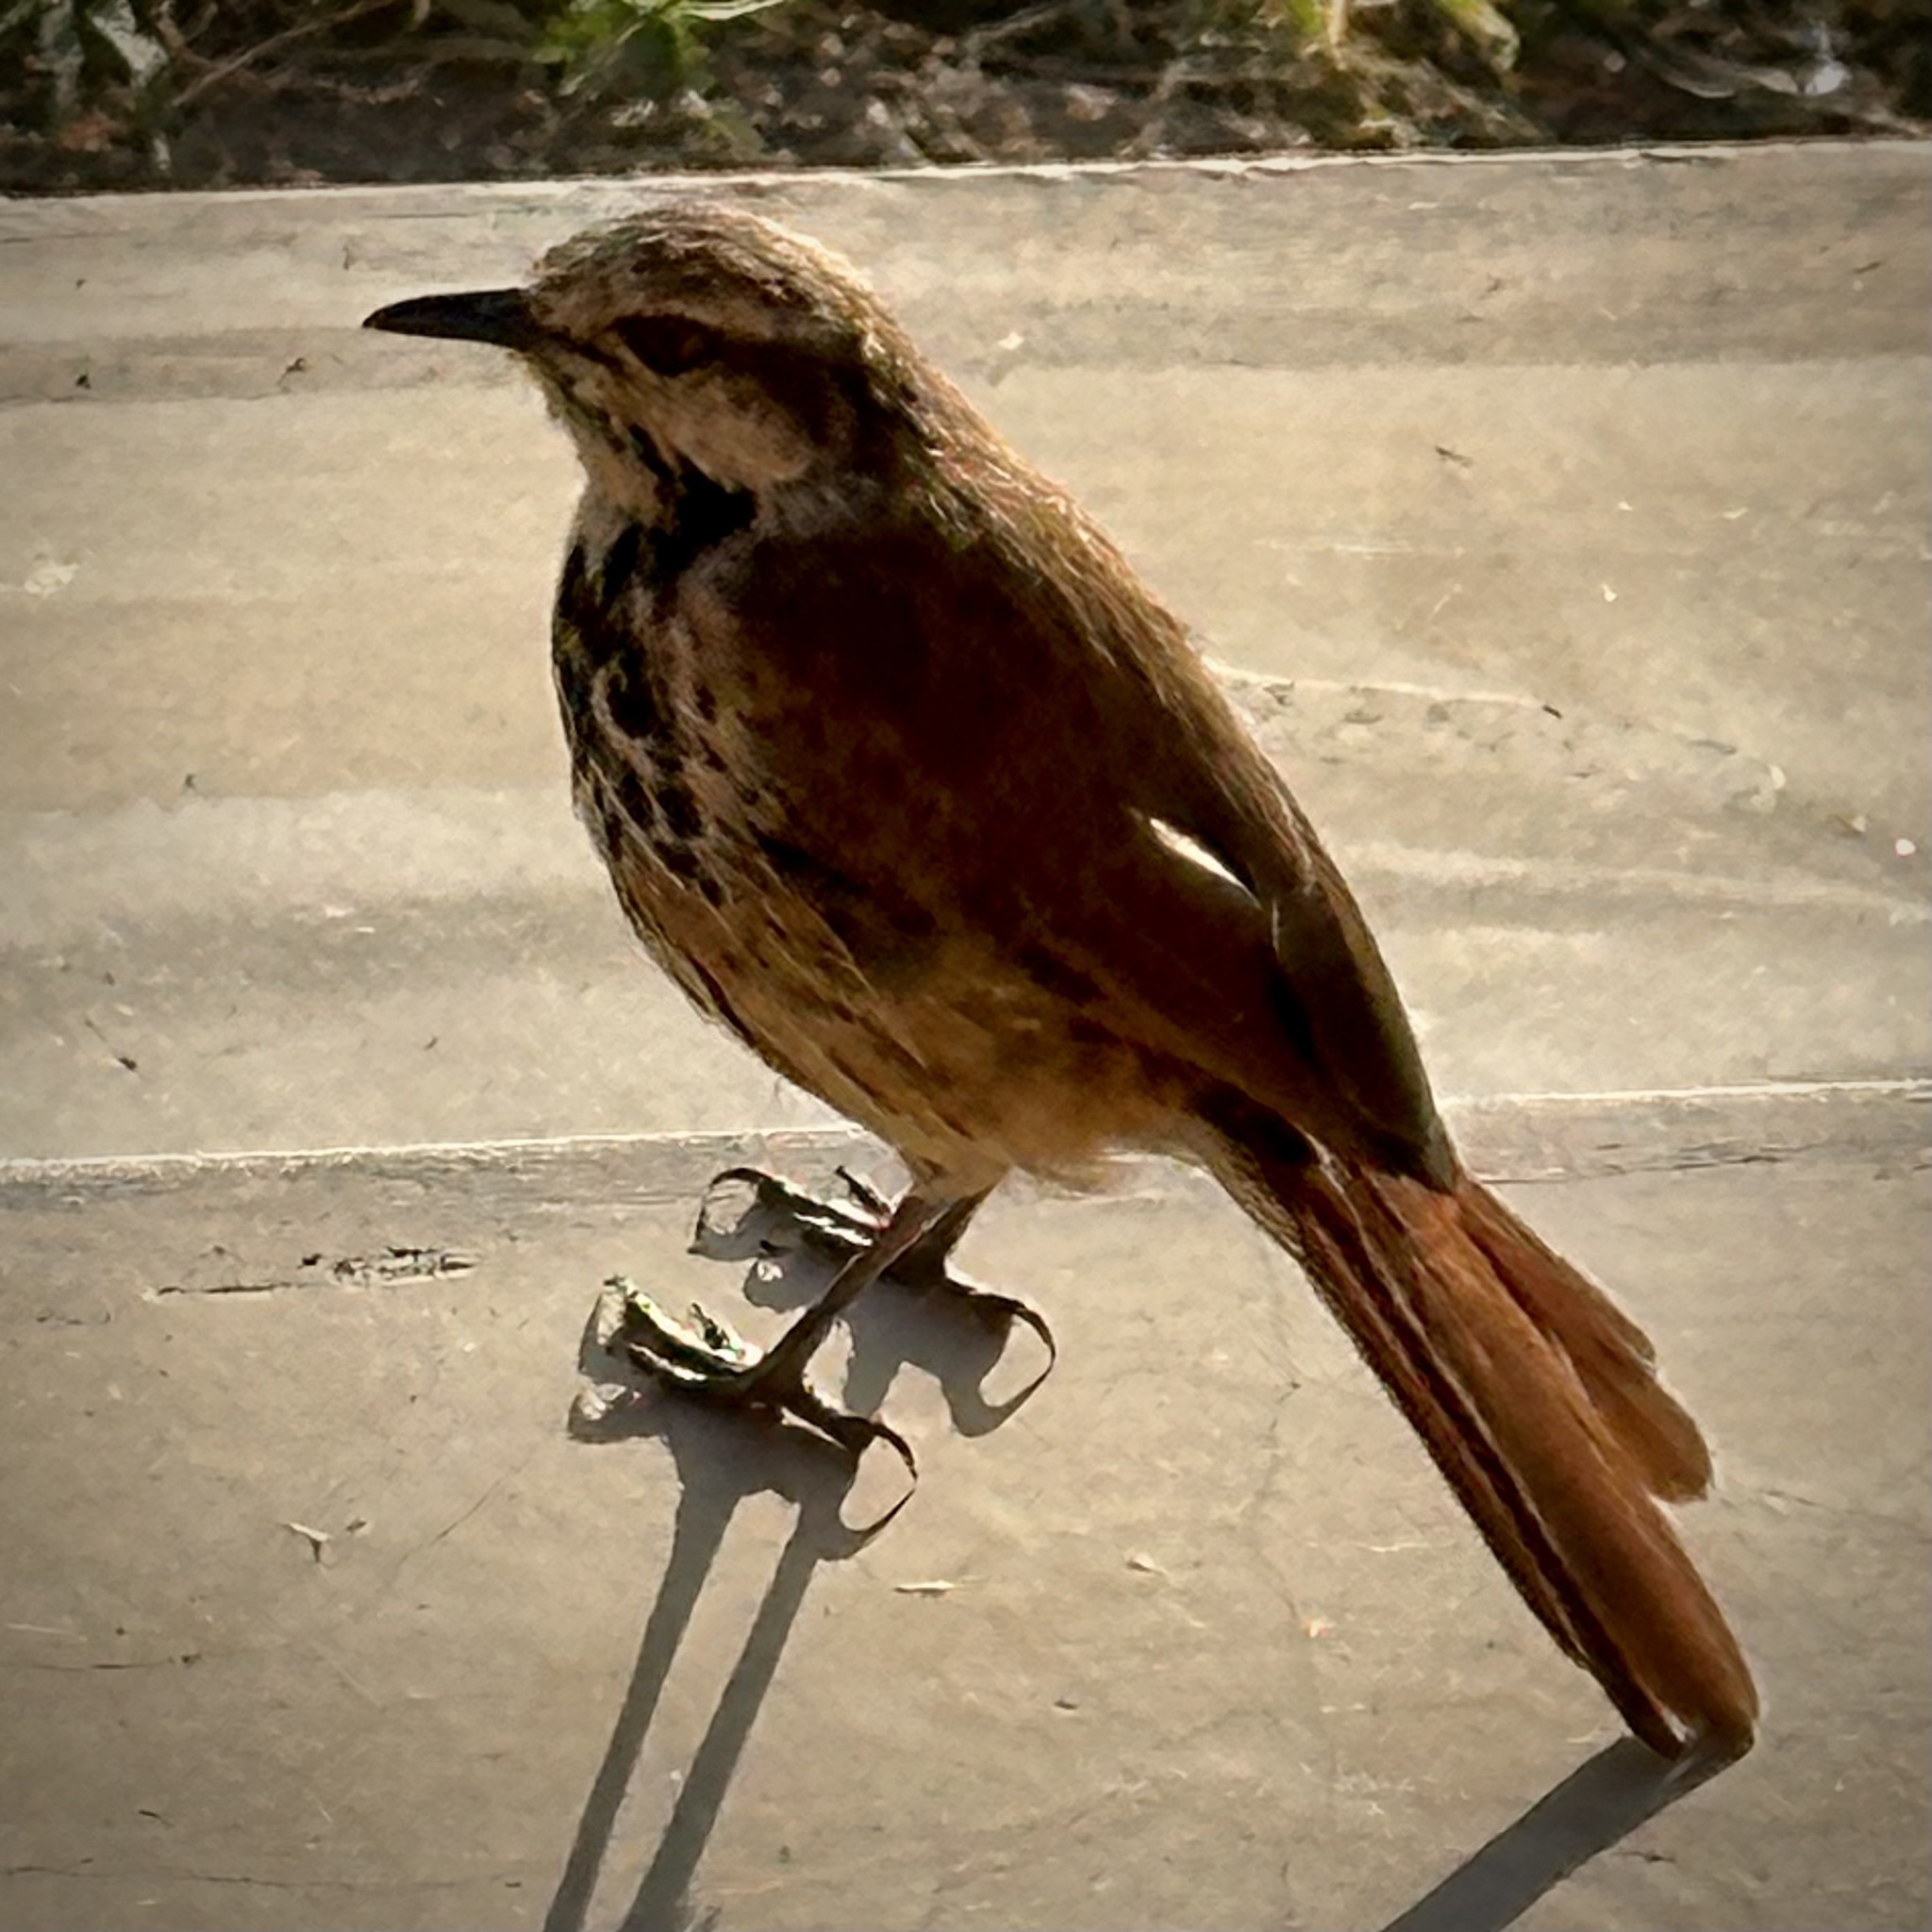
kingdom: Animalia
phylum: Chordata
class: Aves
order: Passeriformes
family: Muscicapidae
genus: Cichladusa
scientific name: Cichladusa guttata
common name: Spotted palm thrush
